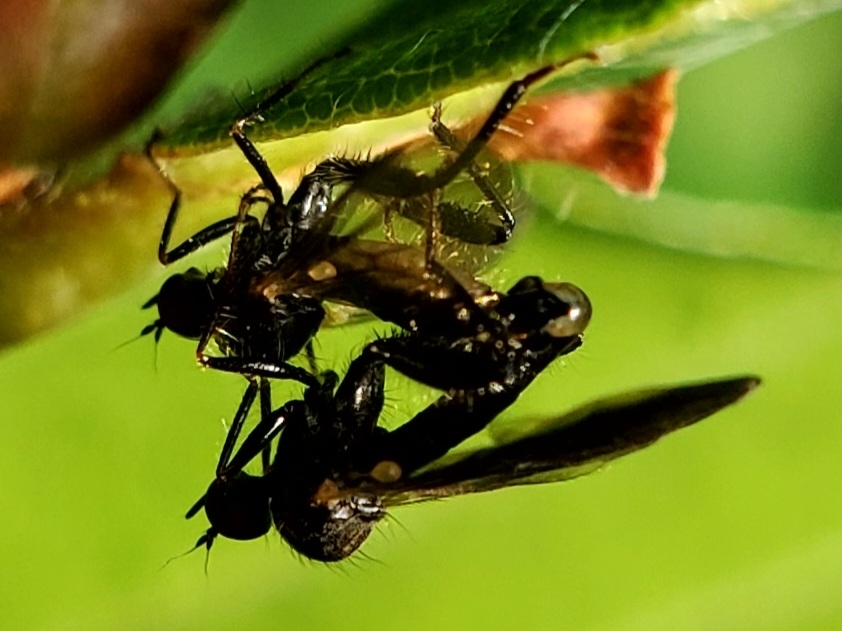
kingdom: Animalia
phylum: Arthropoda
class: Insecta
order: Diptera
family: Hybotidae
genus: Hybos
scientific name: Hybos reversus
